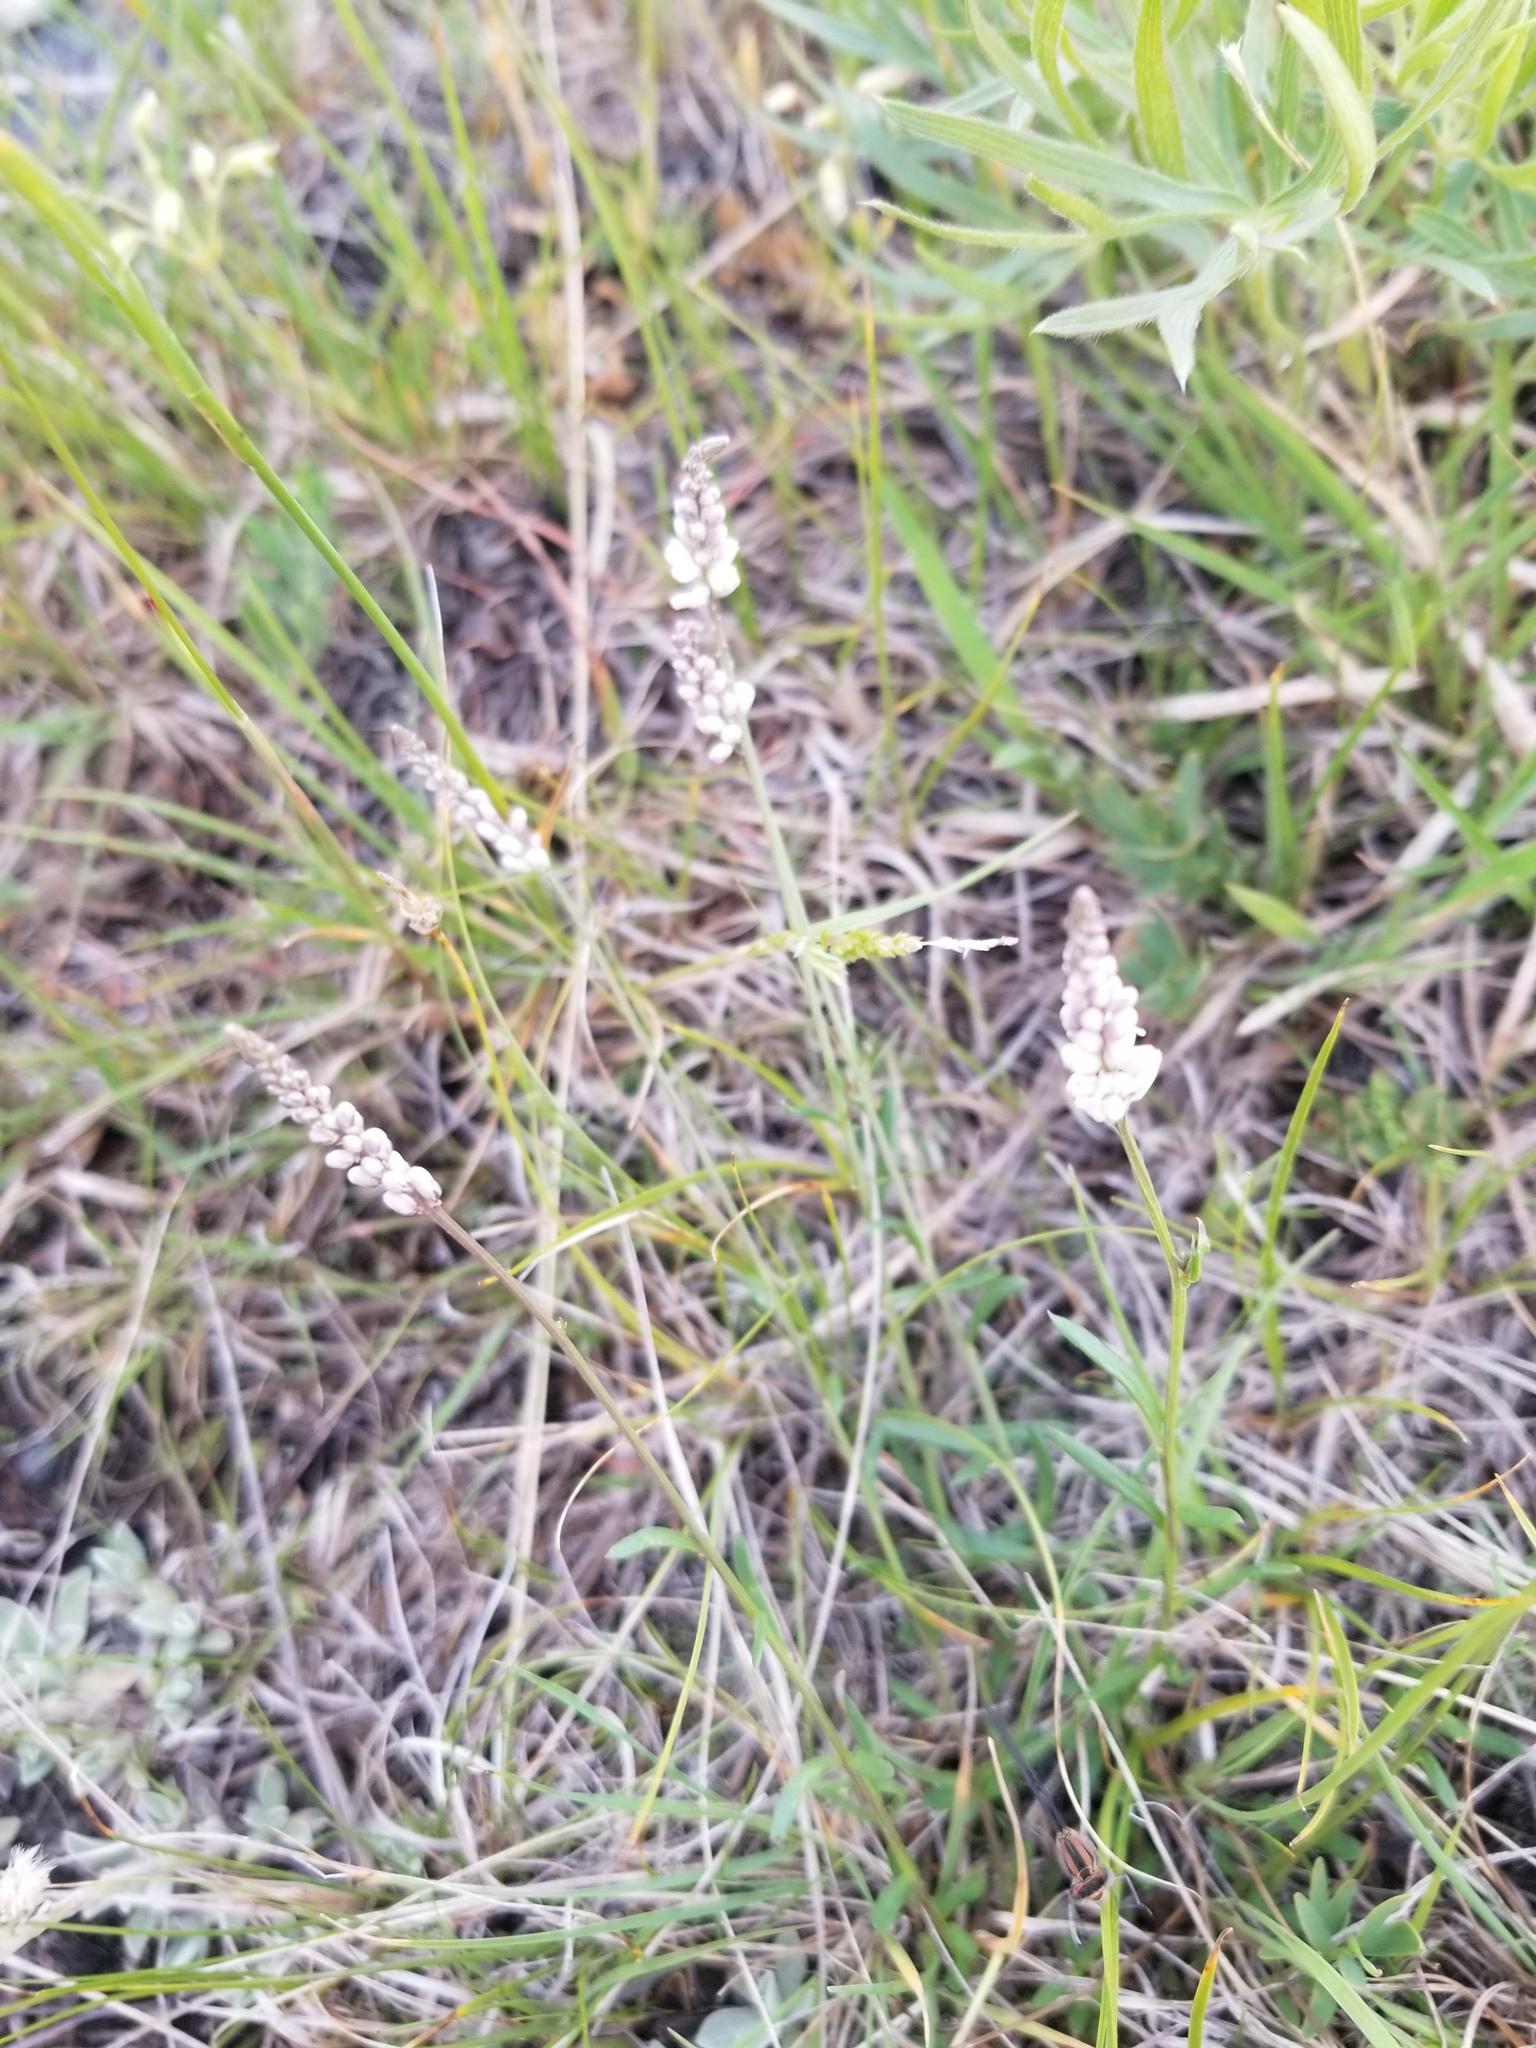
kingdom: Plantae
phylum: Tracheophyta
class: Magnoliopsida
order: Fabales
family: Polygalaceae
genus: Polygala
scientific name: Polygala alba
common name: White milkwort
